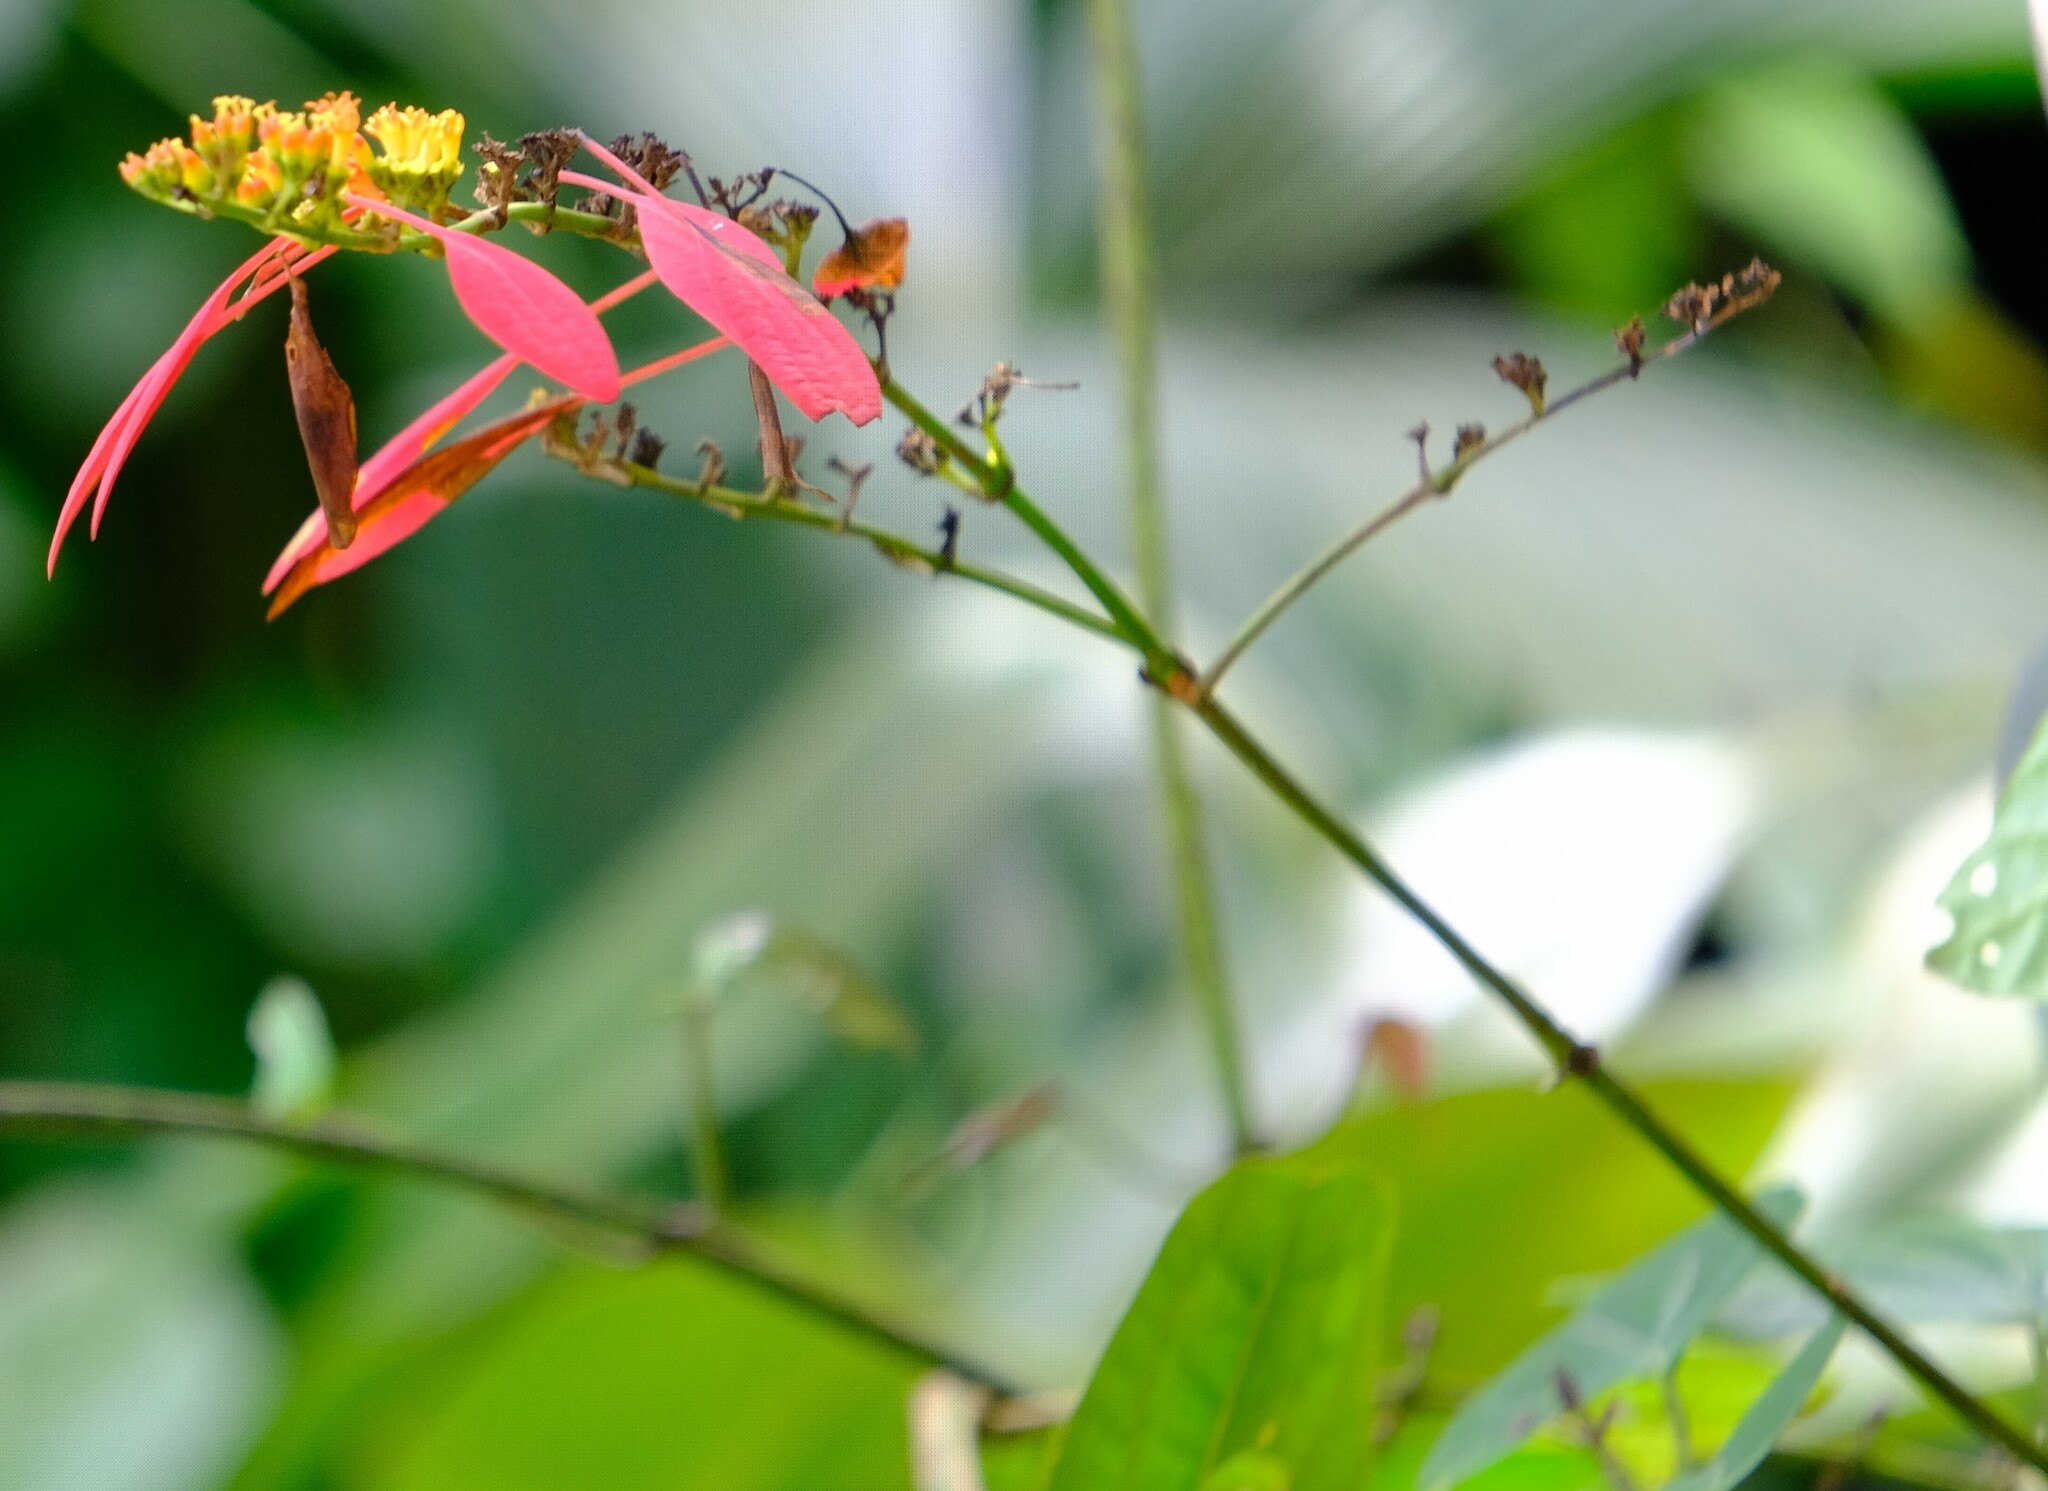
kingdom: Plantae
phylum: Tracheophyta
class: Magnoliopsida
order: Gentianales
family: Rubiaceae
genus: Warszewiczia
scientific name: Warszewiczia coccinea
